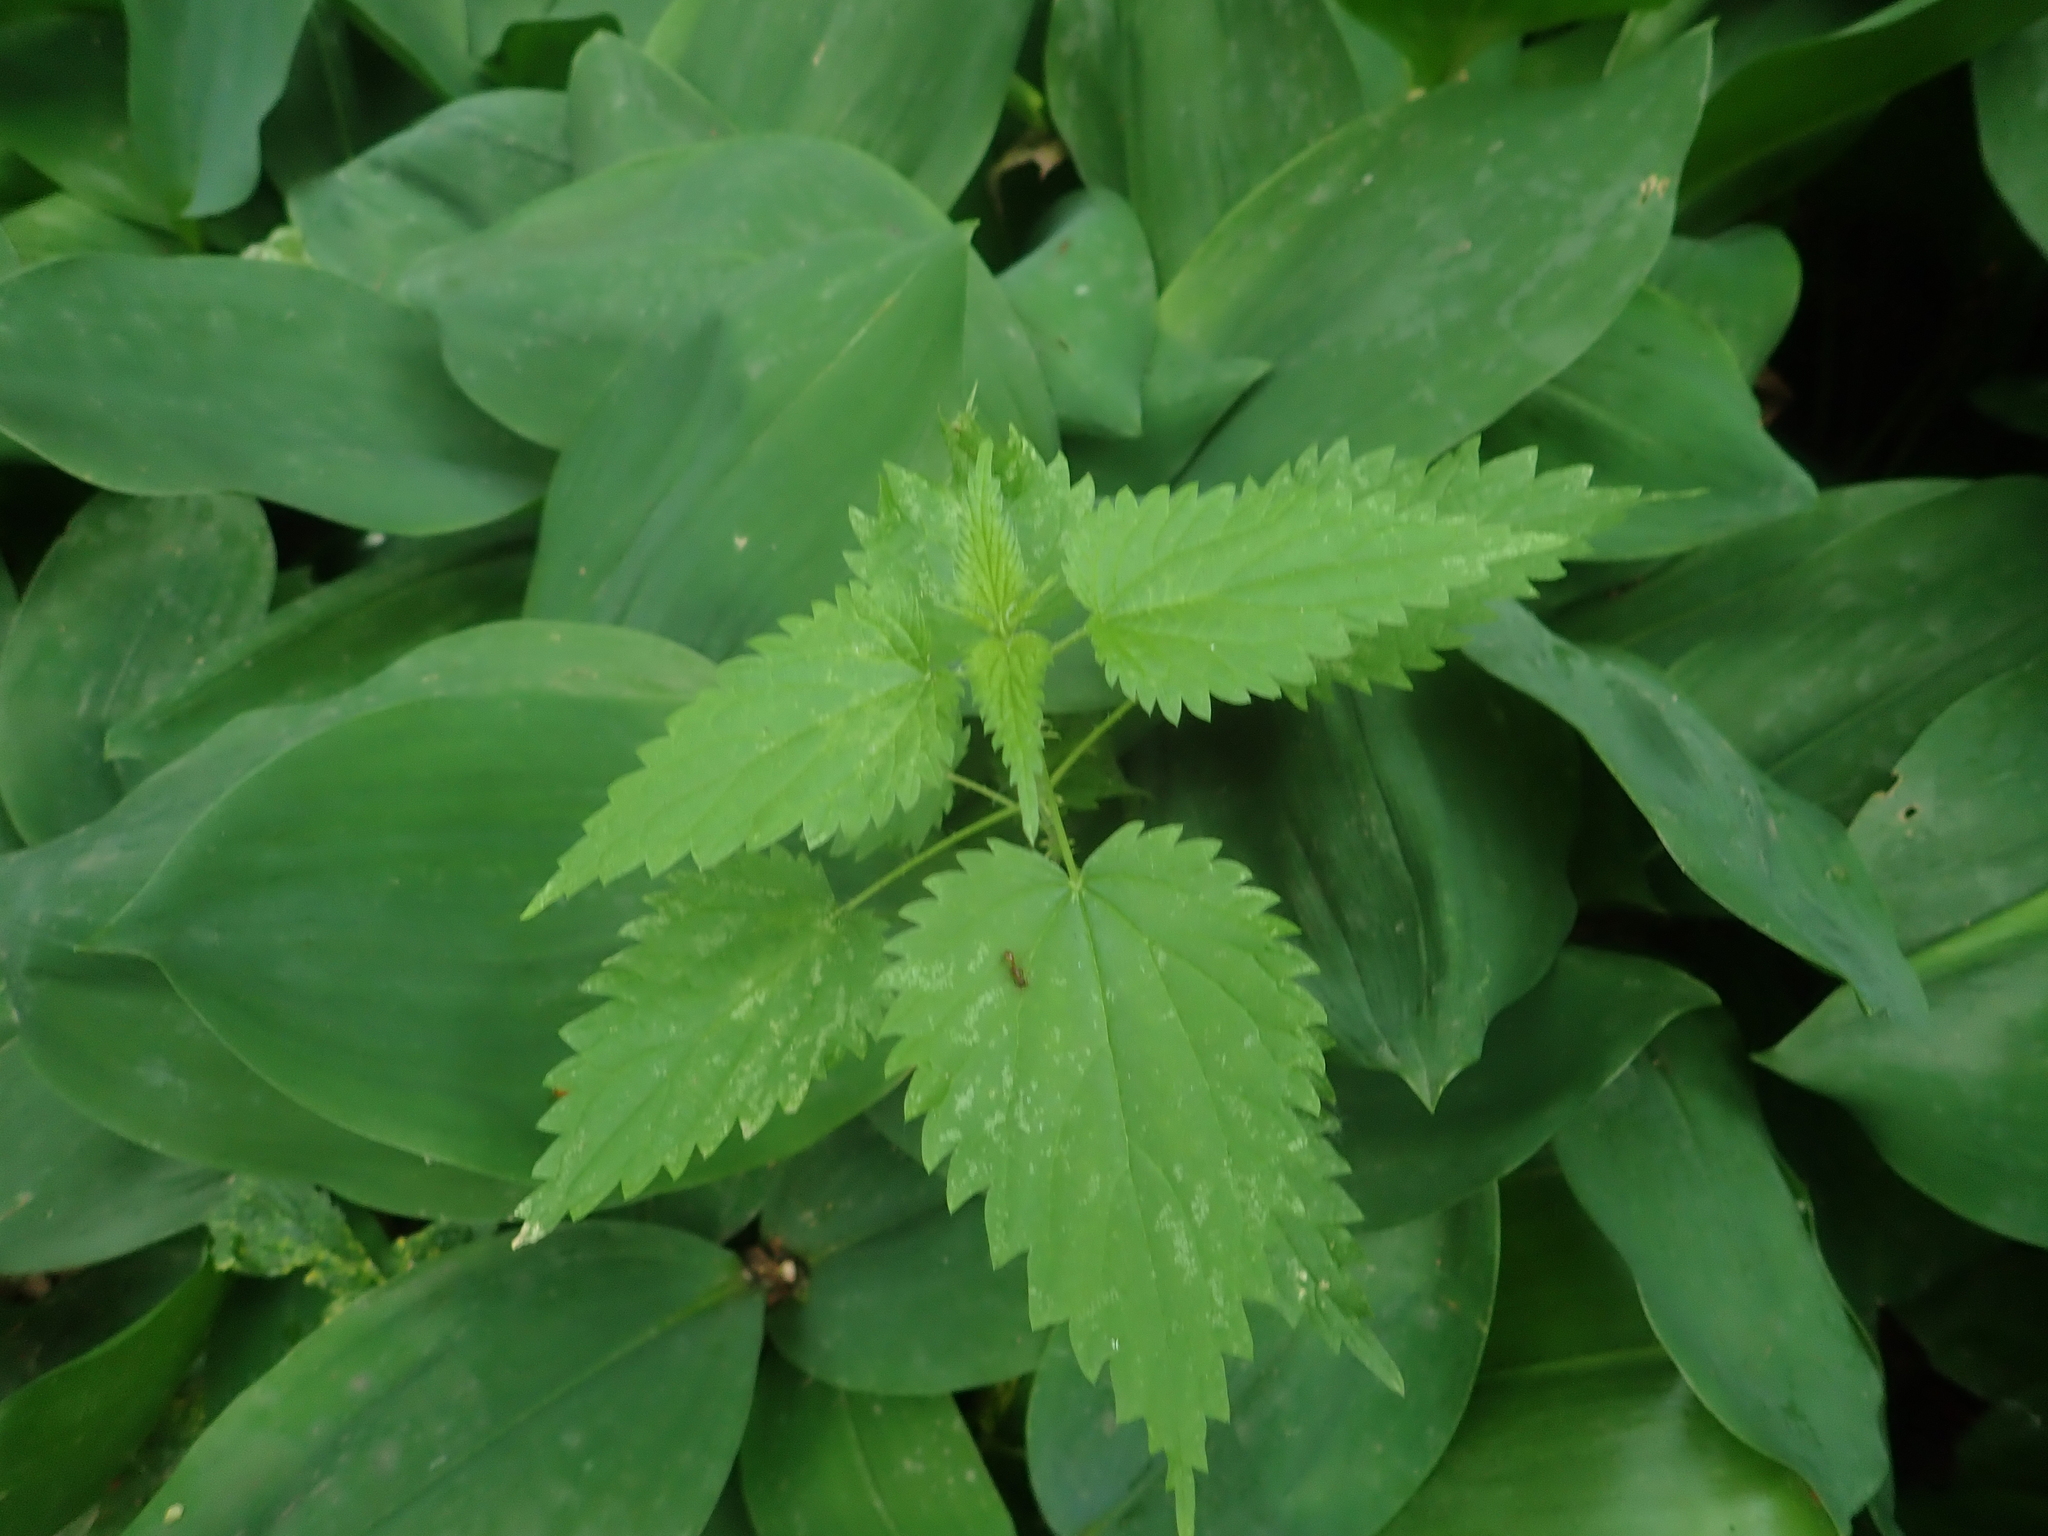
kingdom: Plantae
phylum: Tracheophyta
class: Magnoliopsida
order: Rosales
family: Urticaceae
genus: Urtica
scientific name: Urtica dioica
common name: Common nettle
